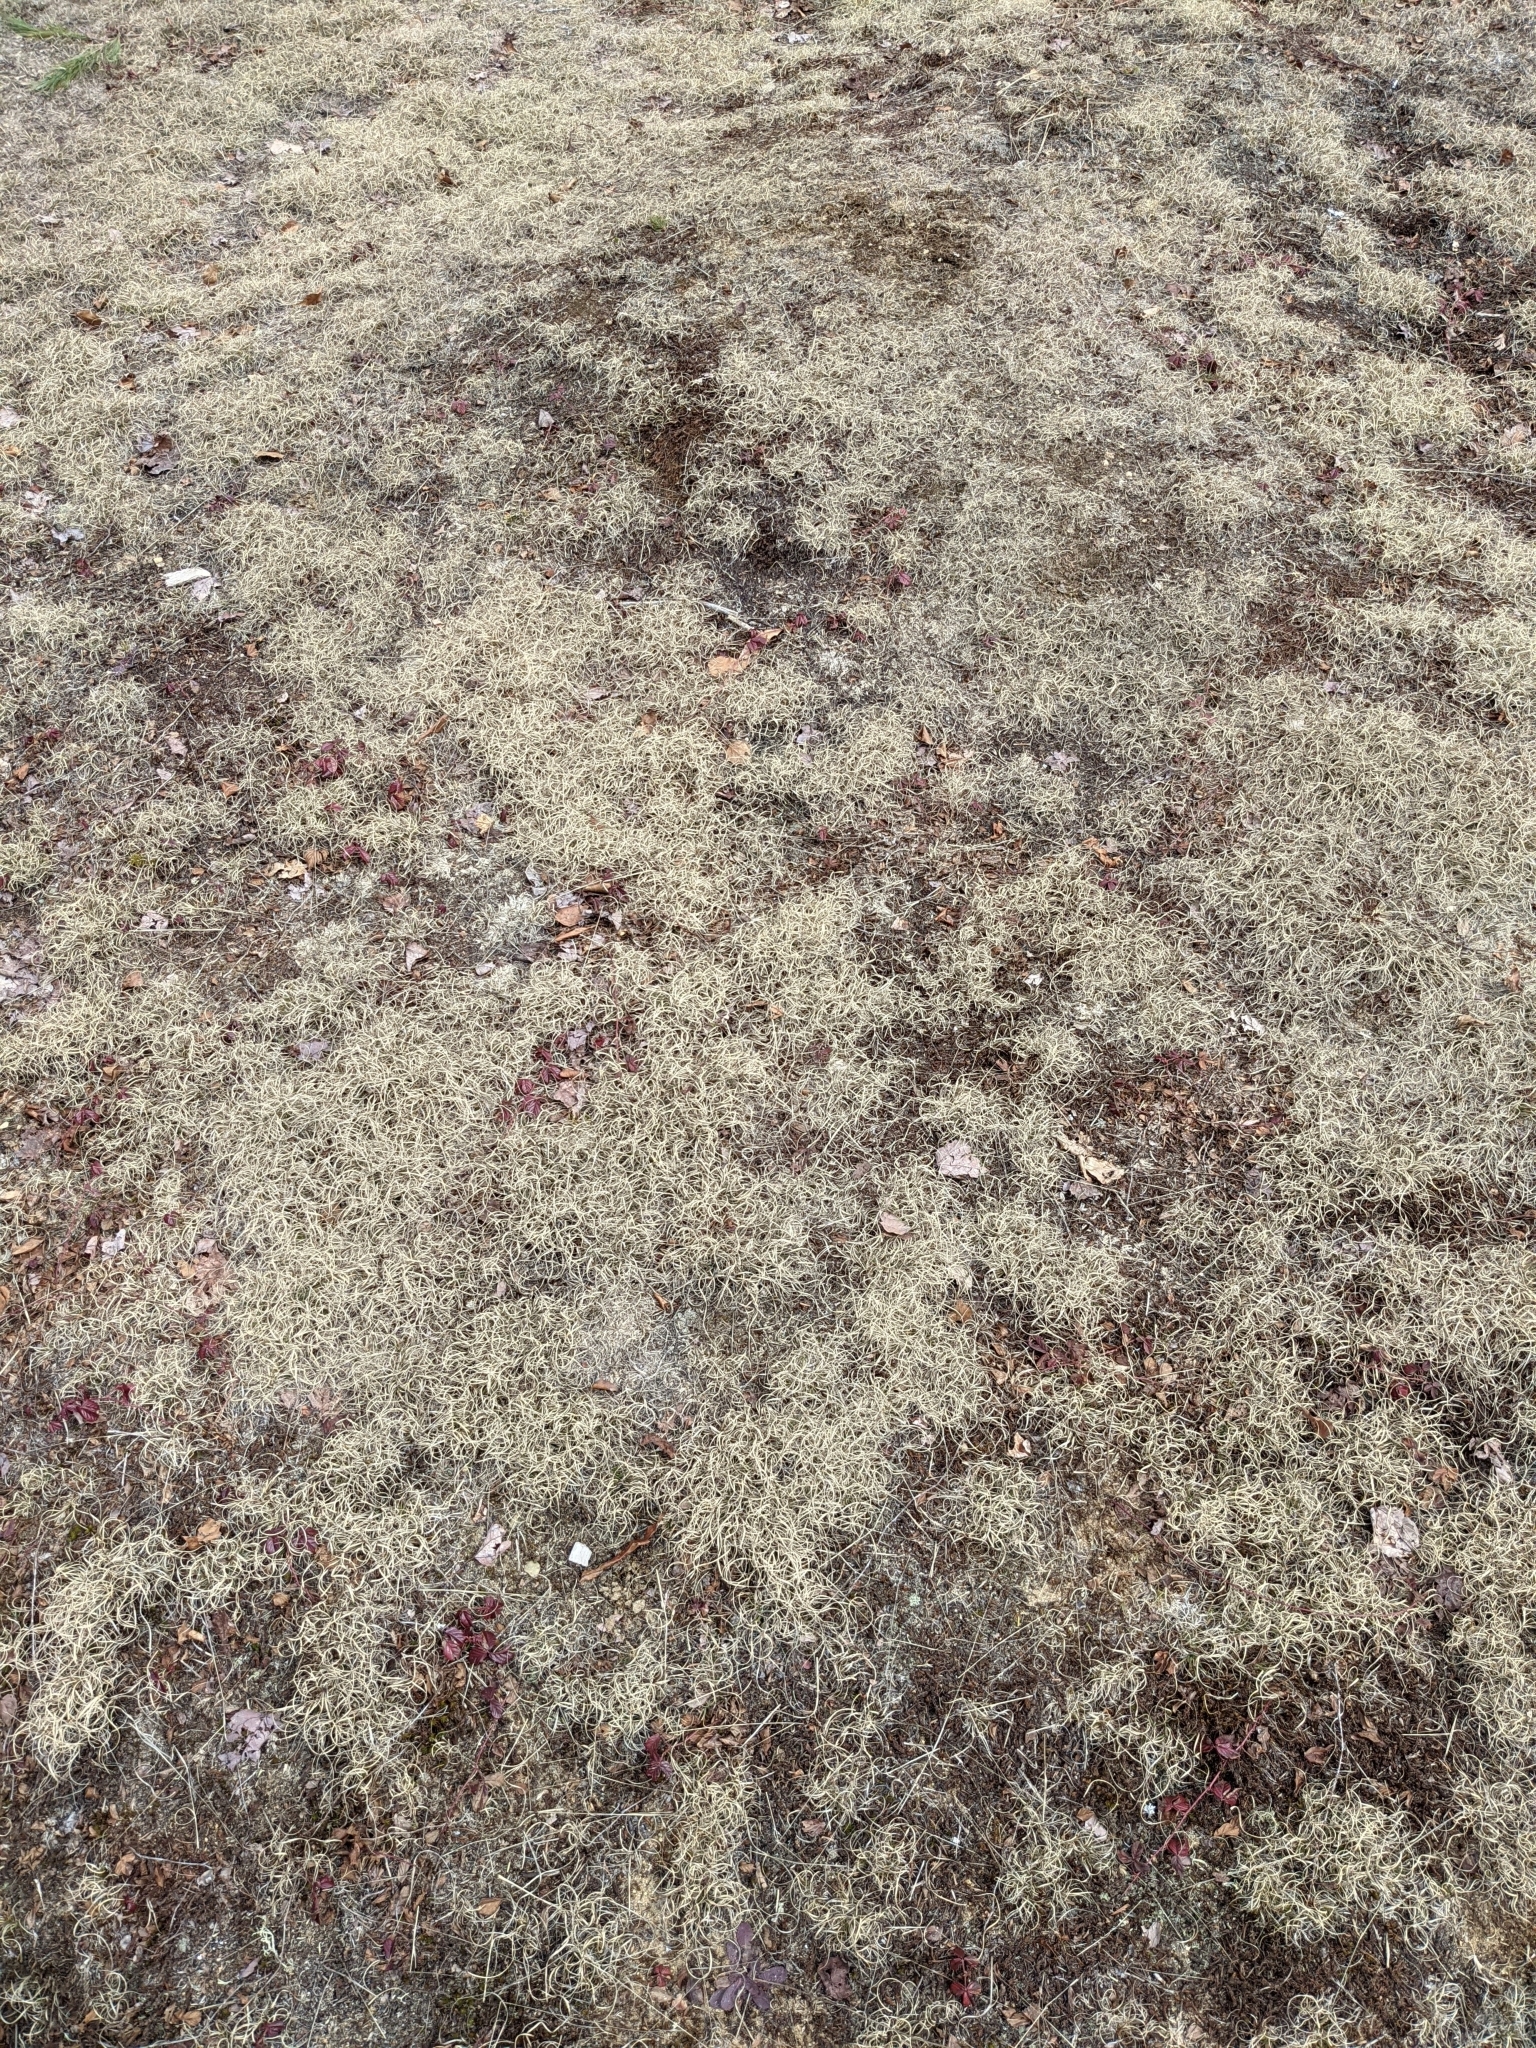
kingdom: Plantae
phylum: Tracheophyta
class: Liliopsida
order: Poales
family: Poaceae
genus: Danthonia
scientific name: Danthonia spicata
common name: Common wild oatgrass
